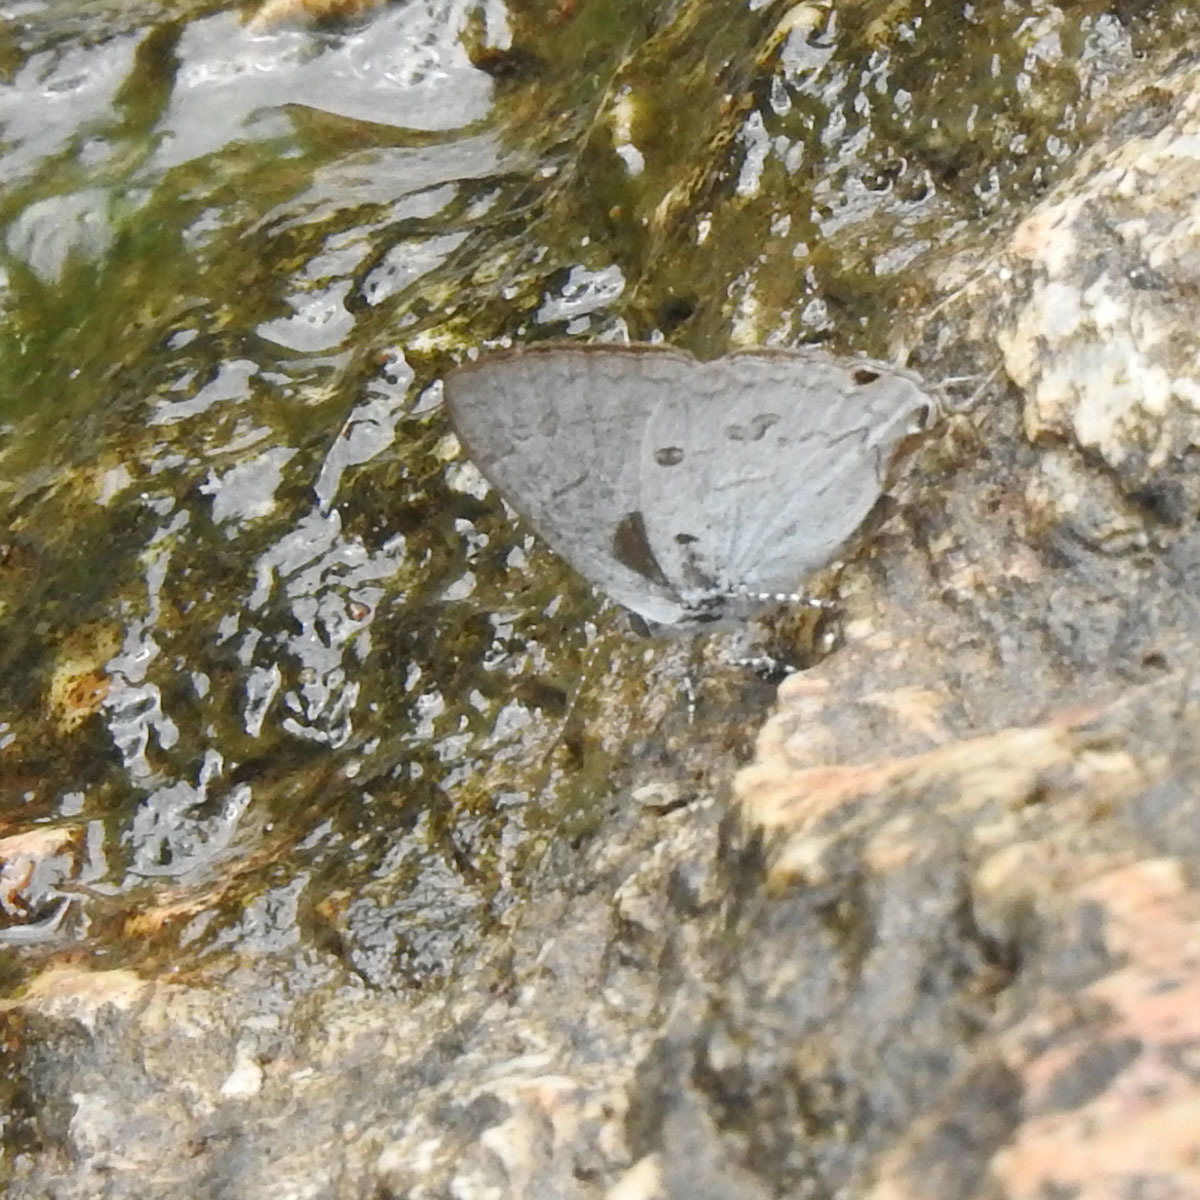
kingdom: Animalia
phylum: Arthropoda
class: Insecta
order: Lepidoptera
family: Lycaenidae
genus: Chliaria
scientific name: Chliaria nilgirica
